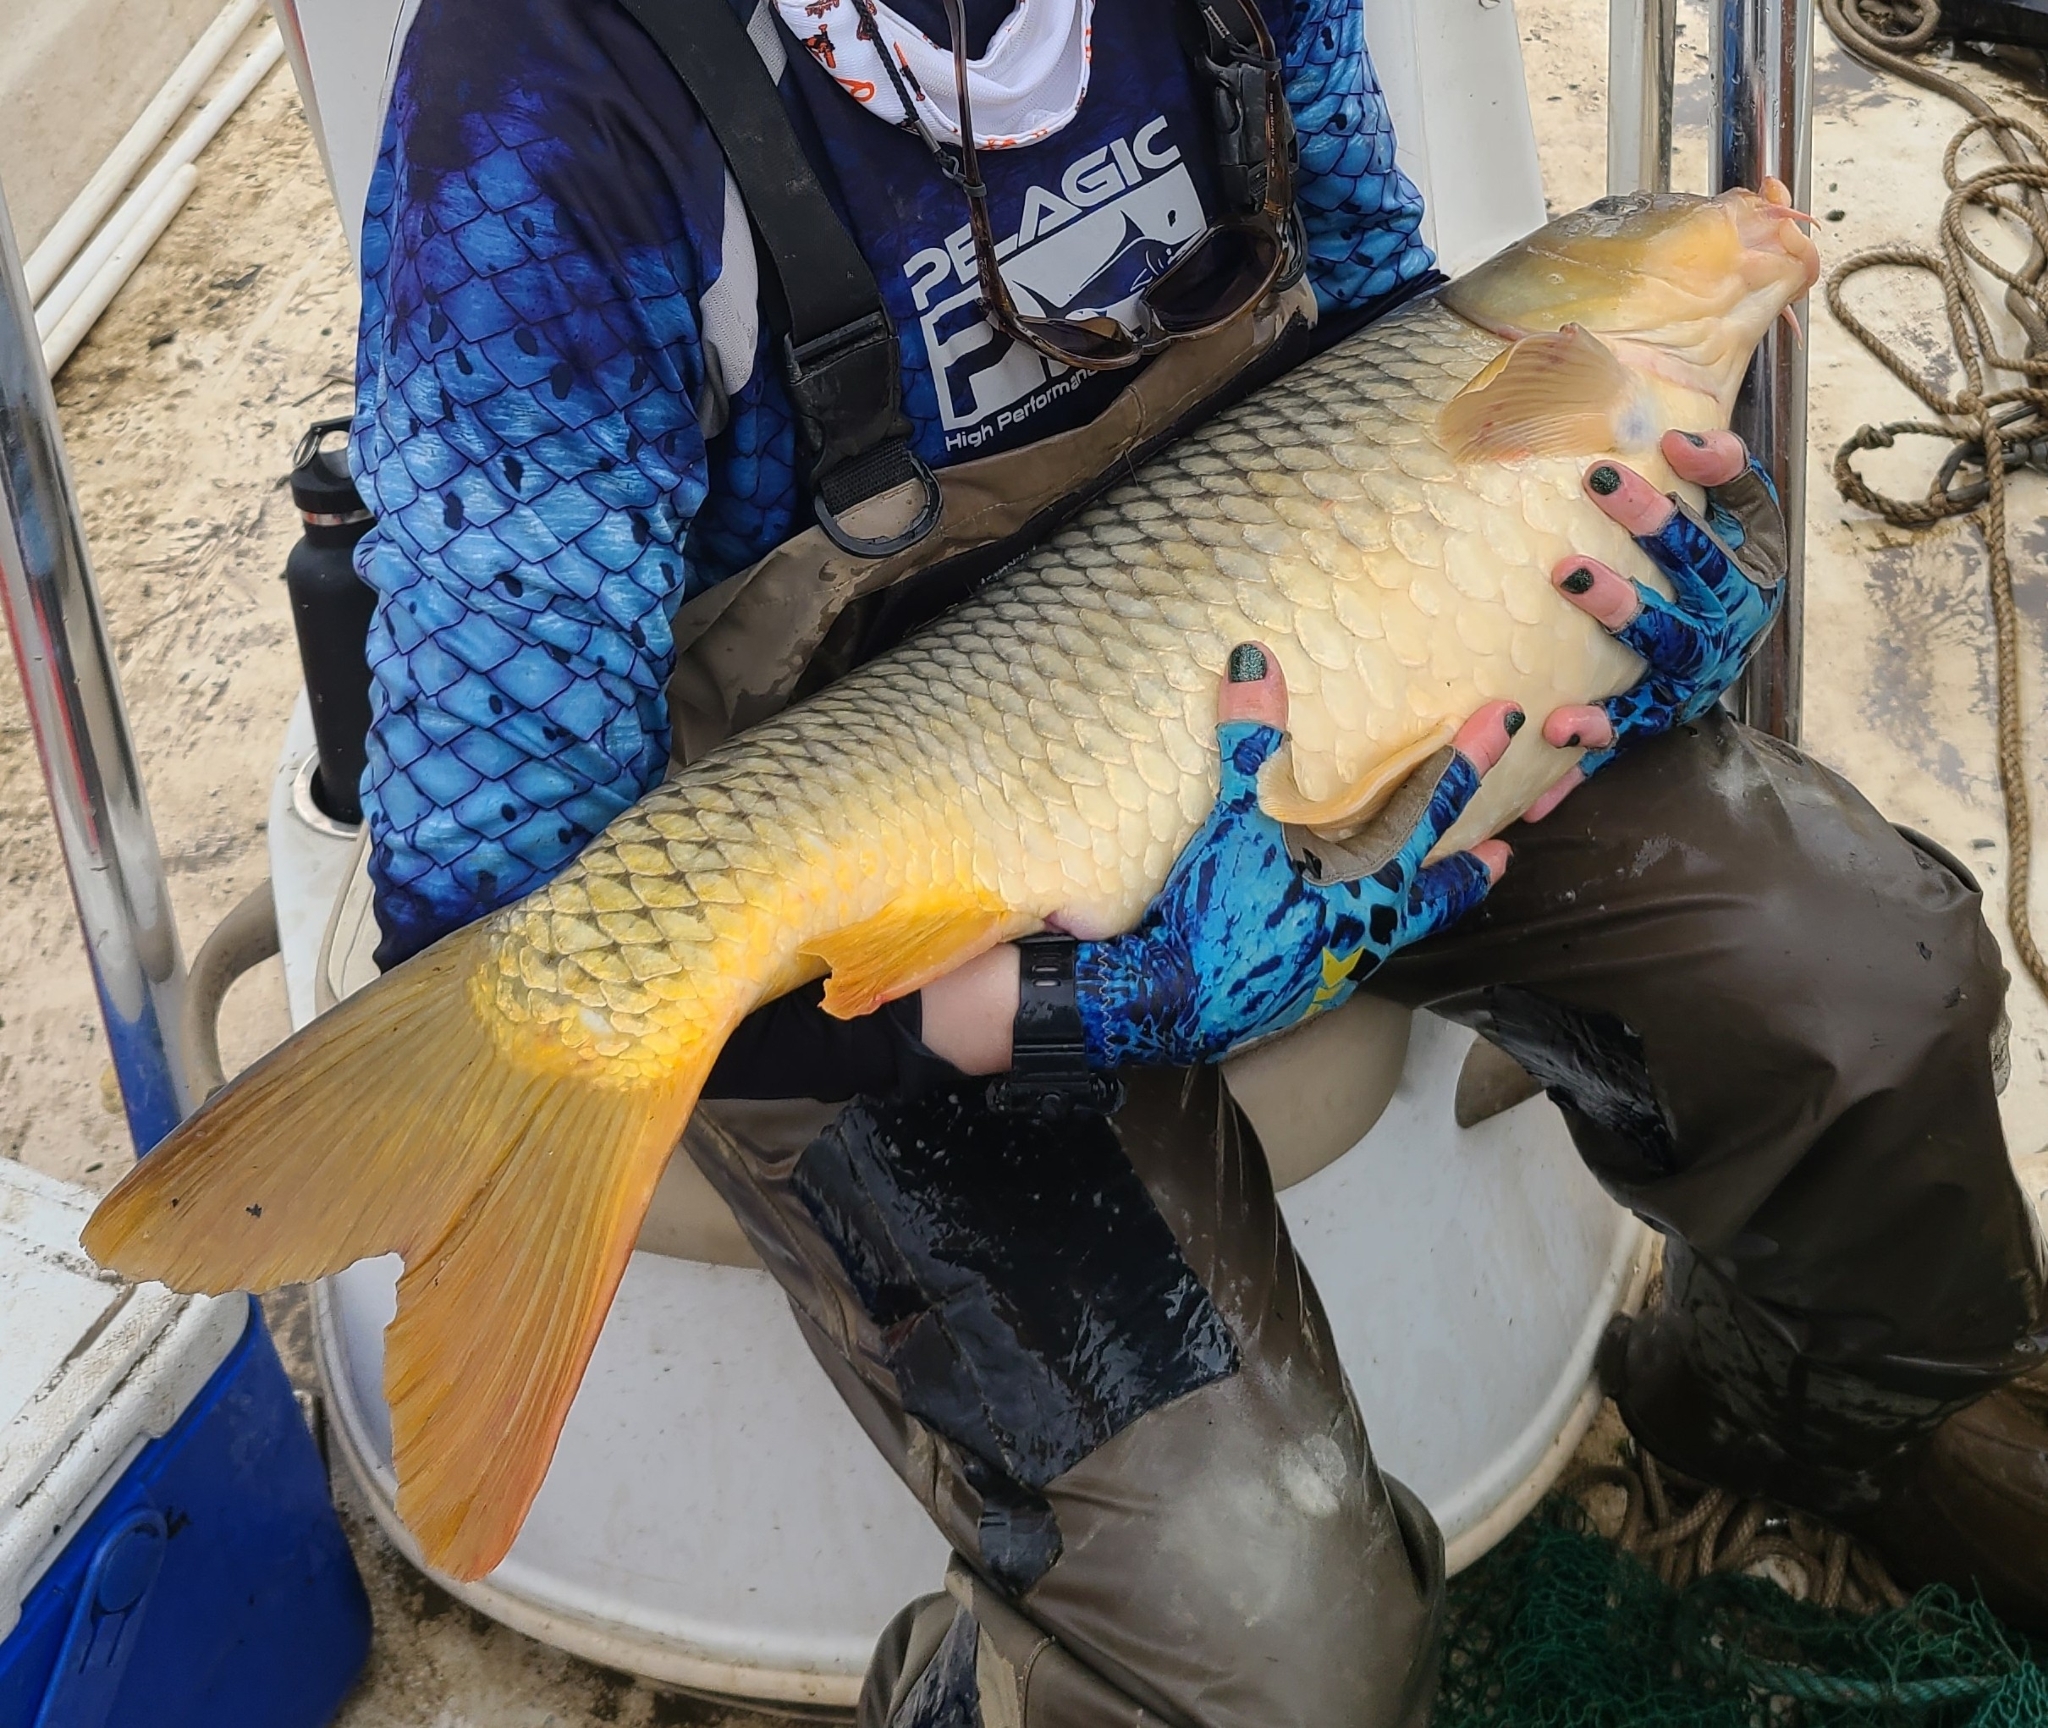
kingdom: Animalia
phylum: Chordata
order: Cypriniformes
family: Cyprinidae
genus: Cyprinus
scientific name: Cyprinus carpio
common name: Common carp
